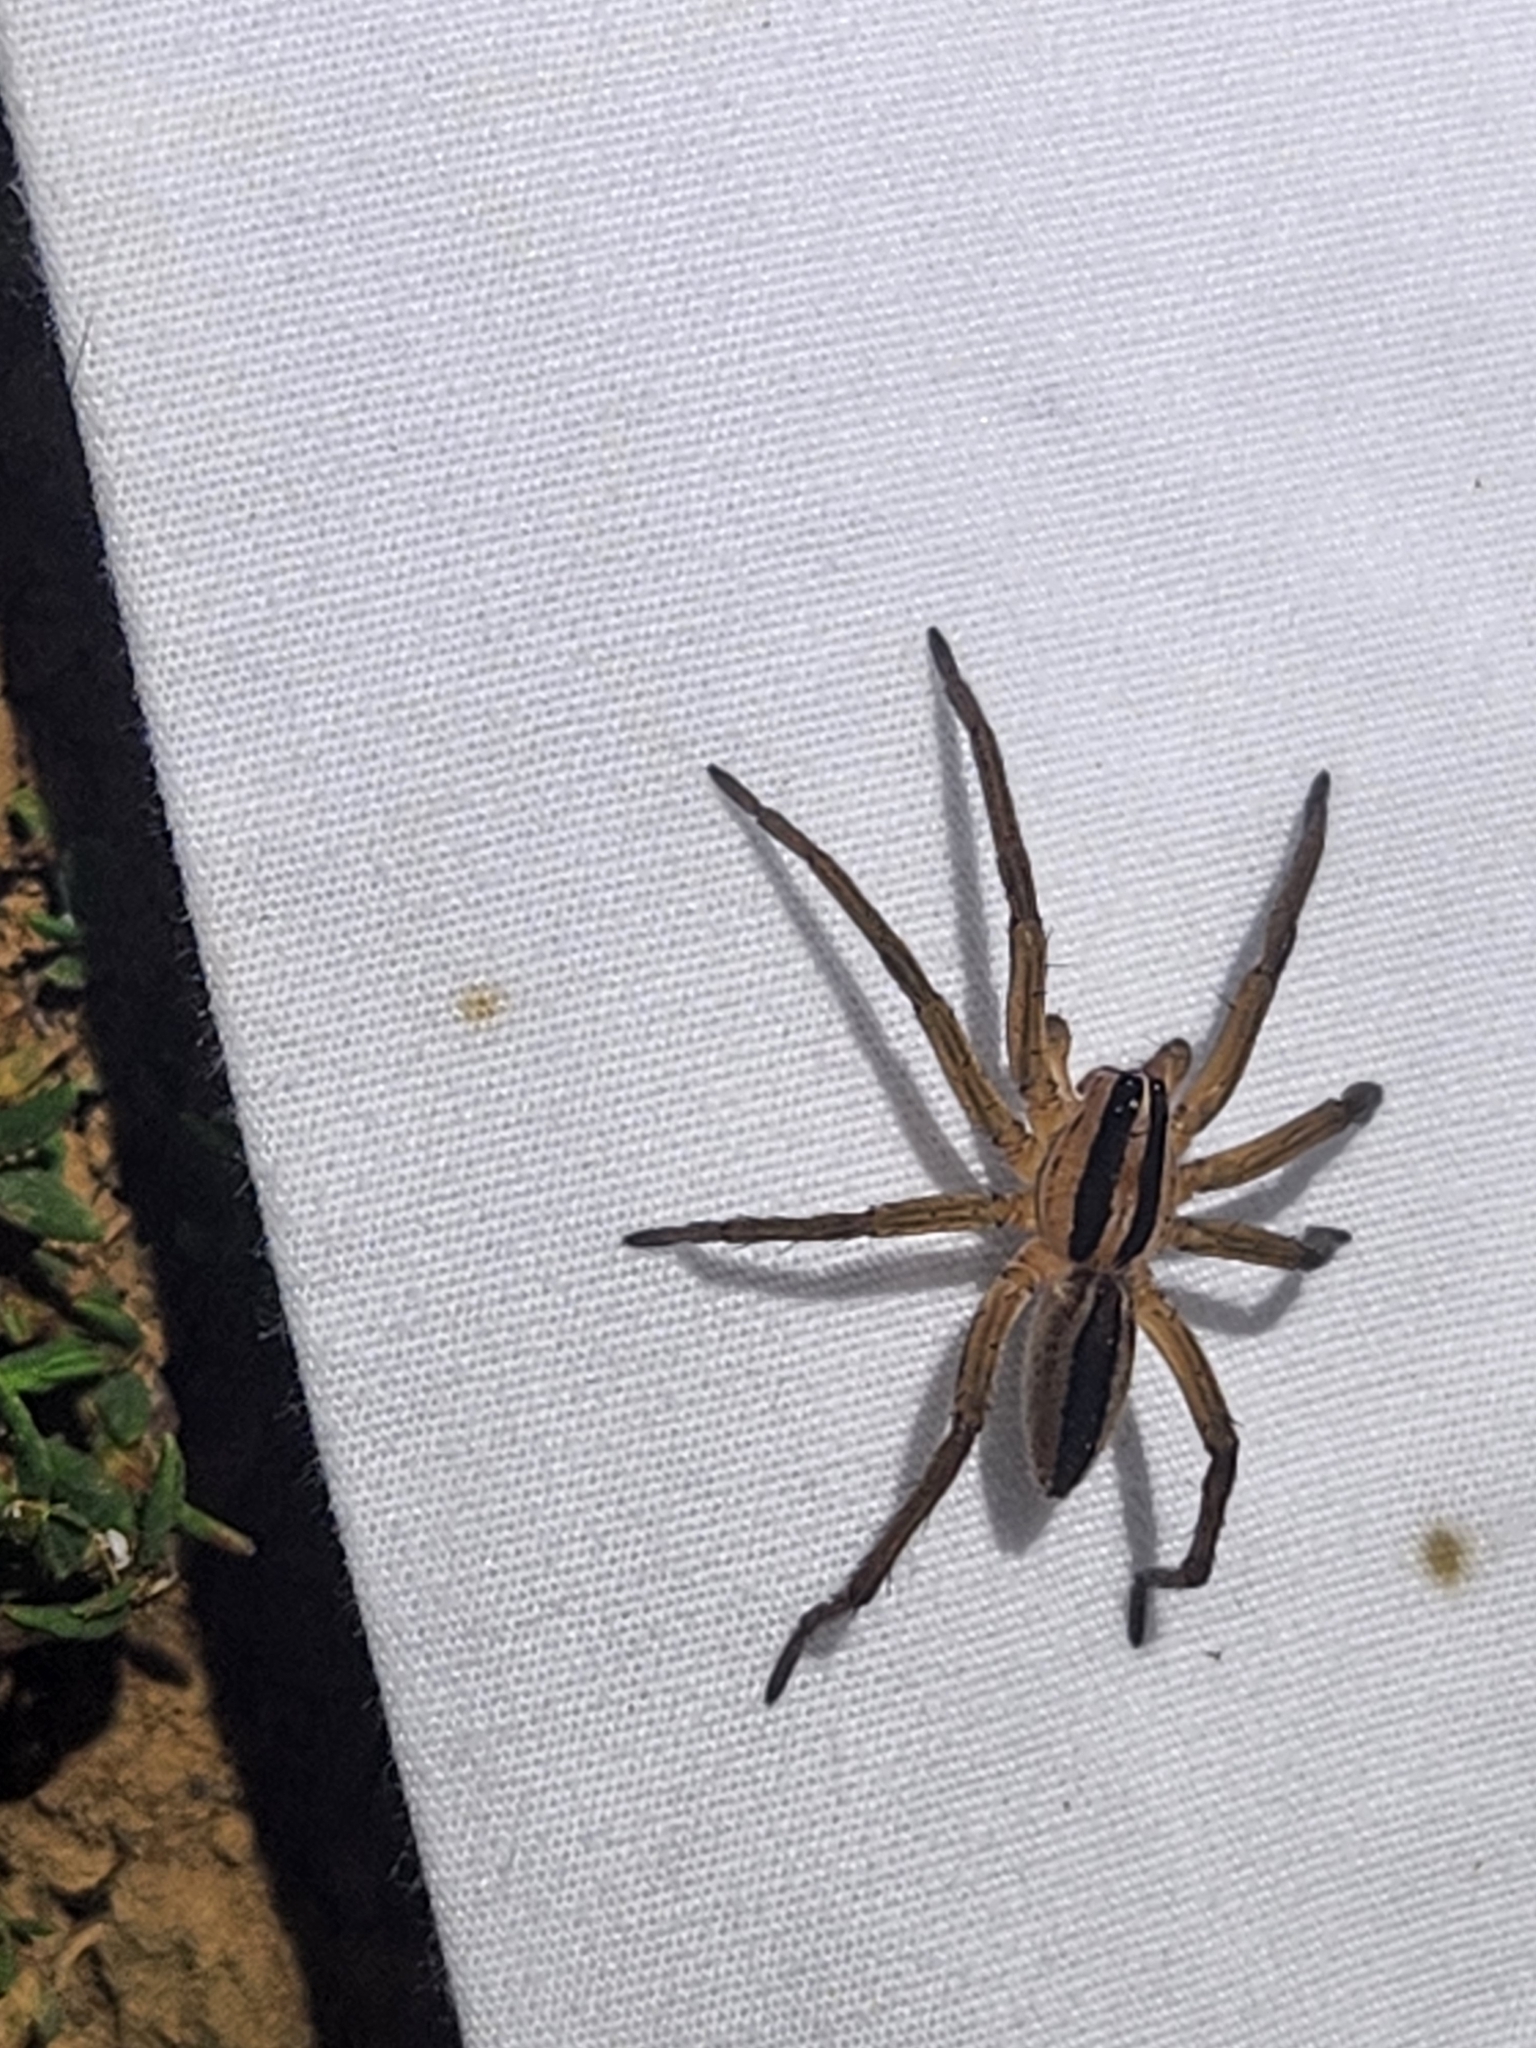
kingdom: Animalia
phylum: Arthropoda
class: Arachnida
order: Araneae
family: Lycosidae
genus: Rabidosa
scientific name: Rabidosa punctulata
